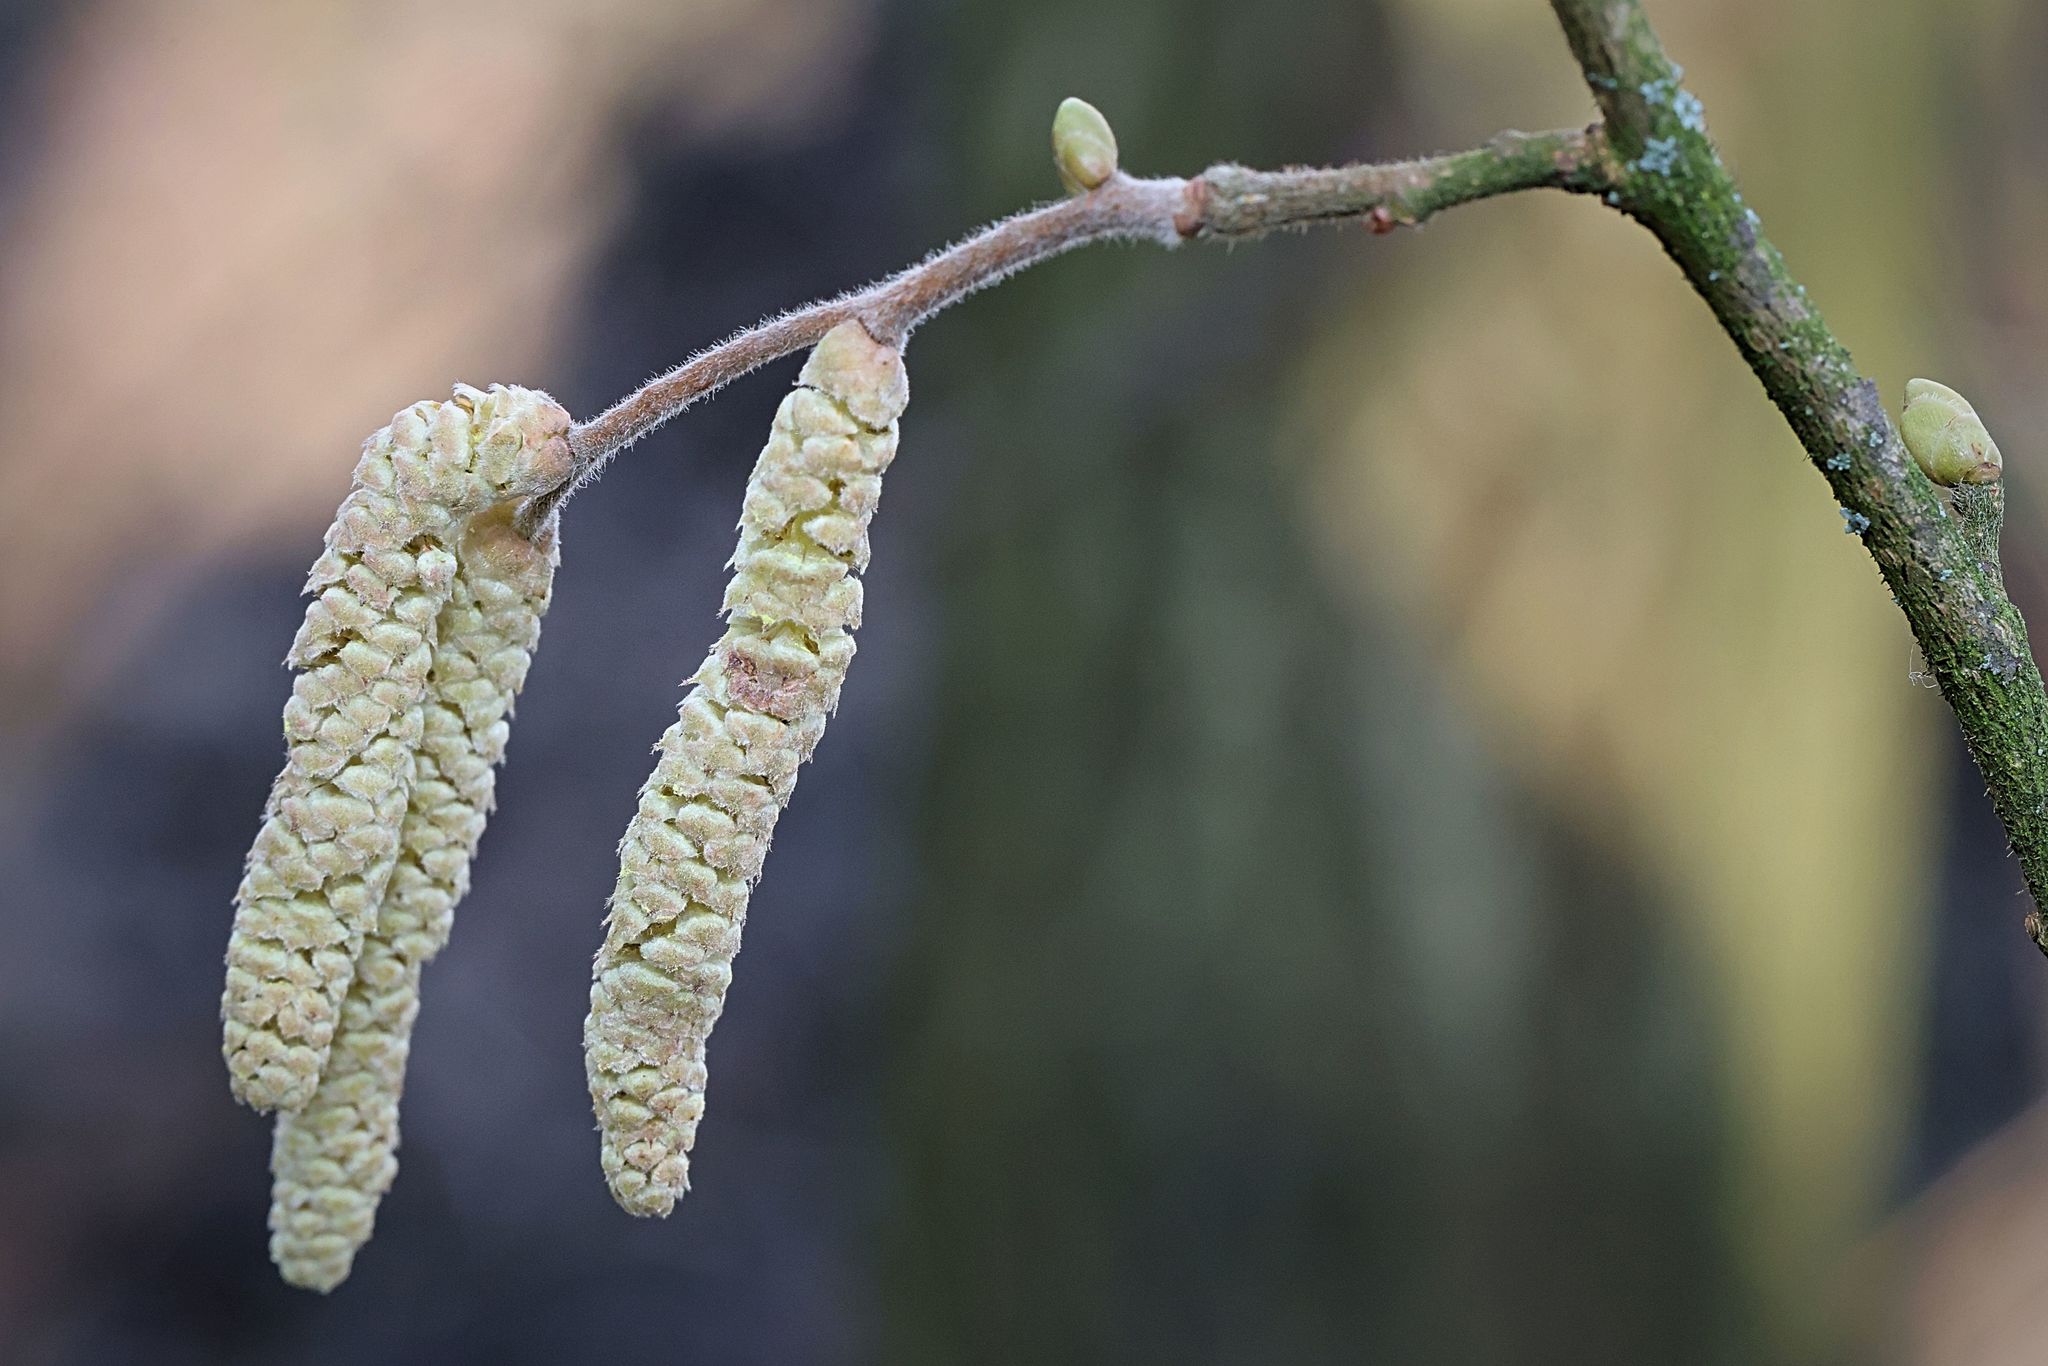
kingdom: Plantae
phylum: Tracheophyta
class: Magnoliopsida
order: Fagales
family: Betulaceae
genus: Corylus
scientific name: Corylus avellana
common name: European hazel
